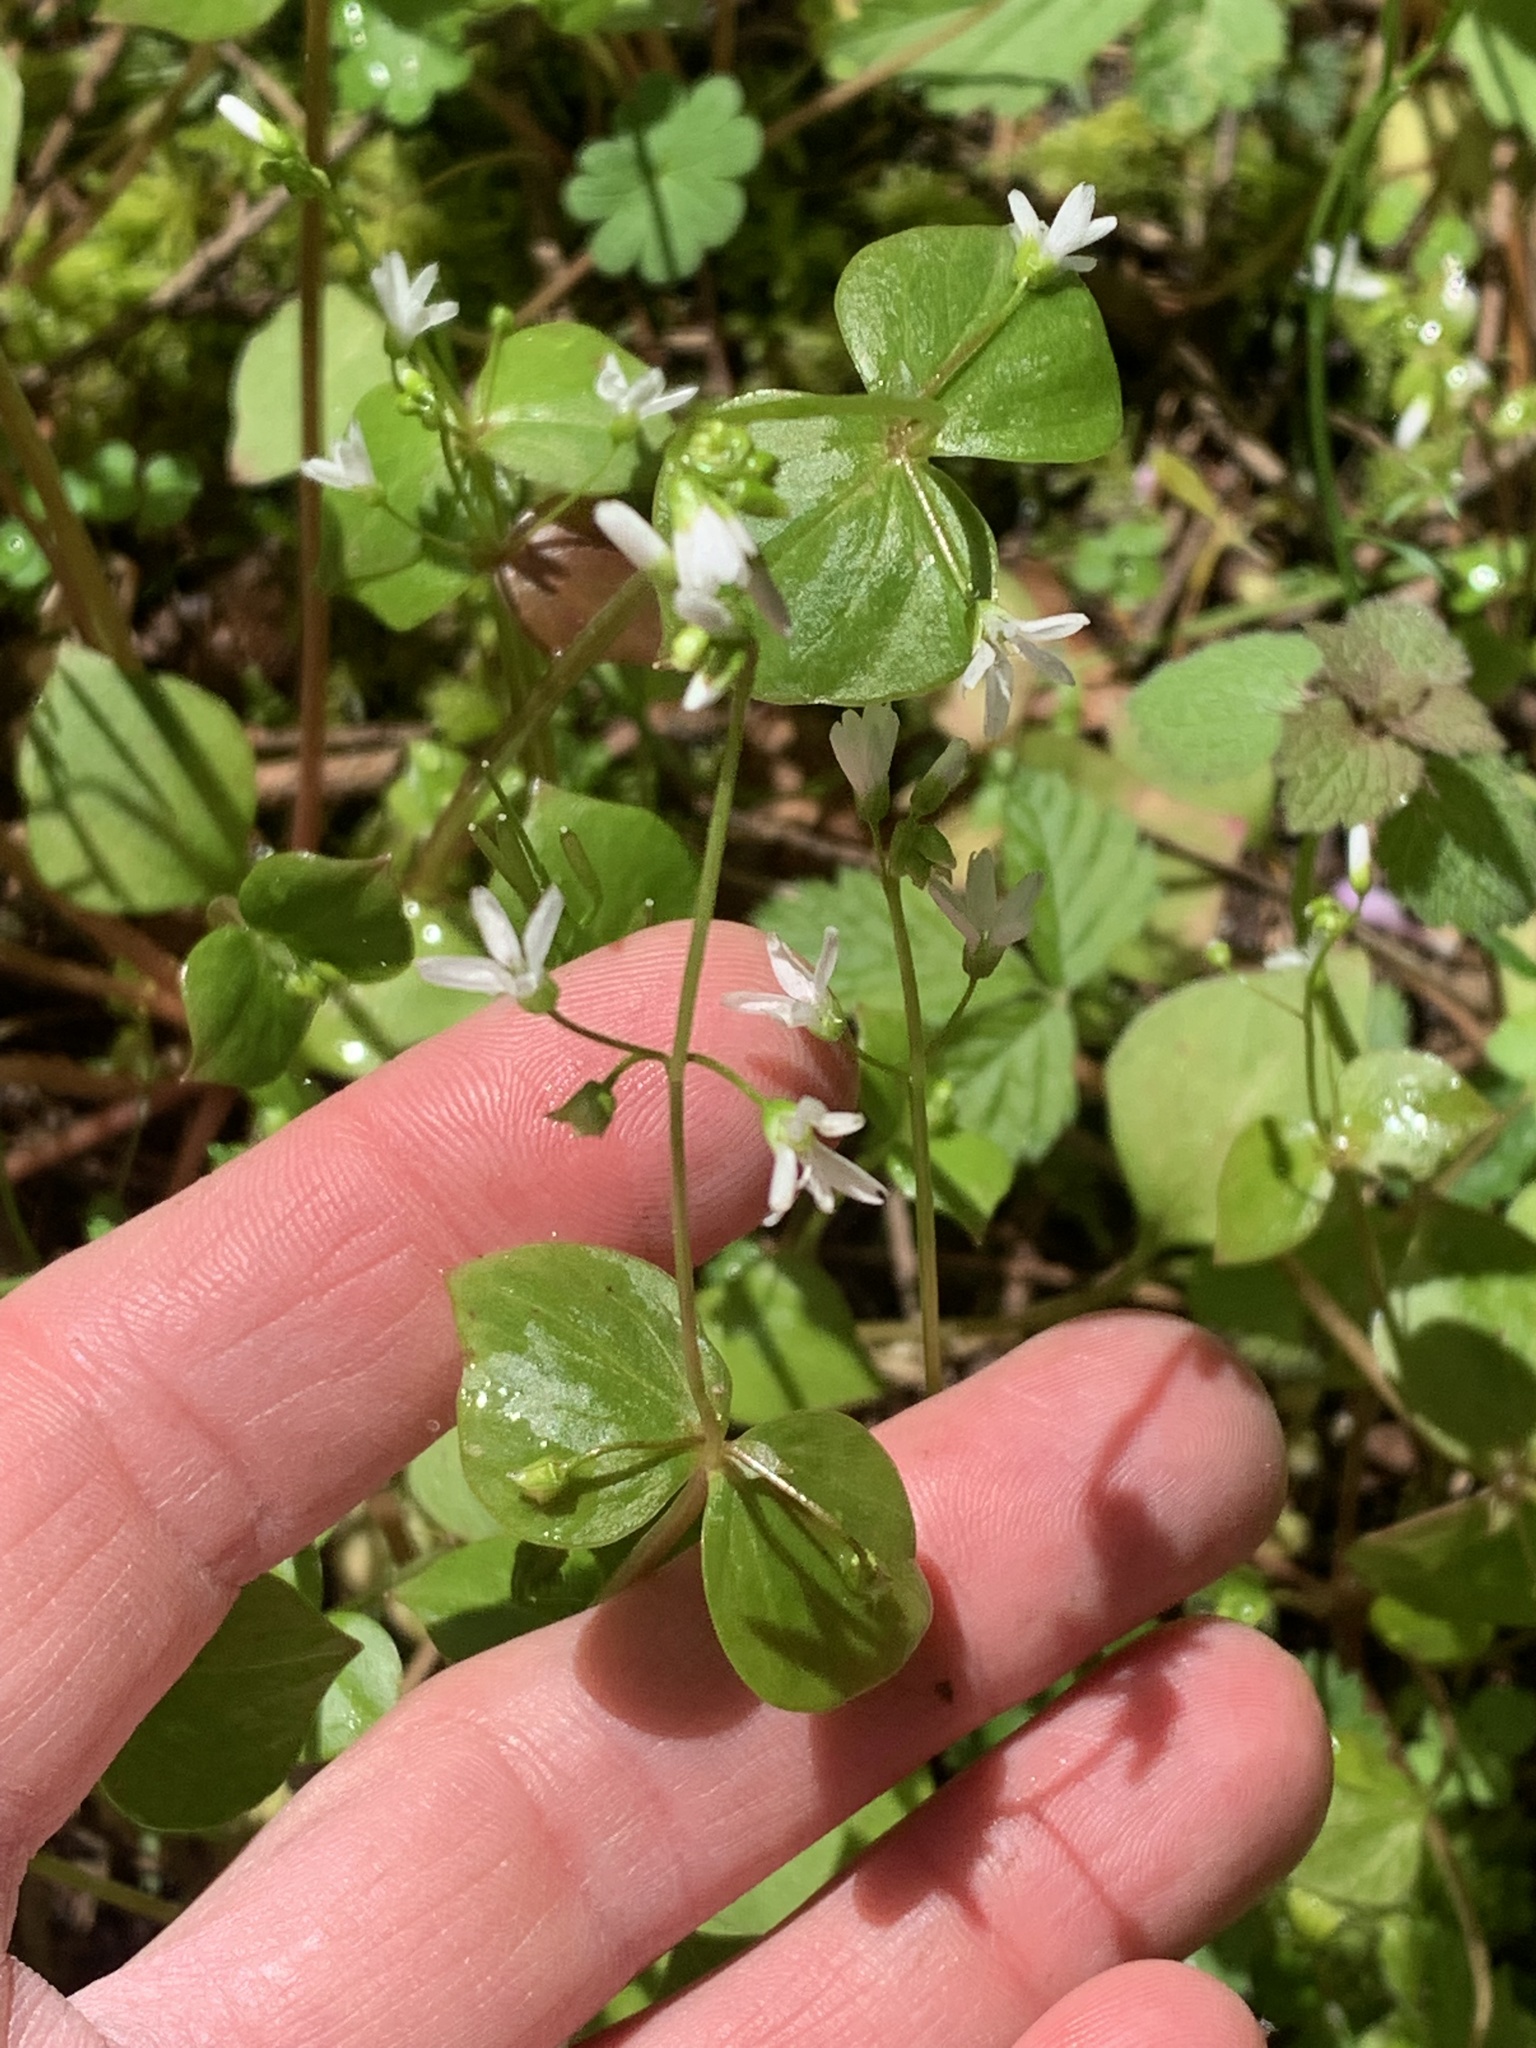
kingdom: Plantae
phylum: Tracheophyta
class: Magnoliopsida
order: Caryophyllales
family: Montiaceae
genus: Claytonia
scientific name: Claytonia washingtoniana
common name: Lake washington claytonia
